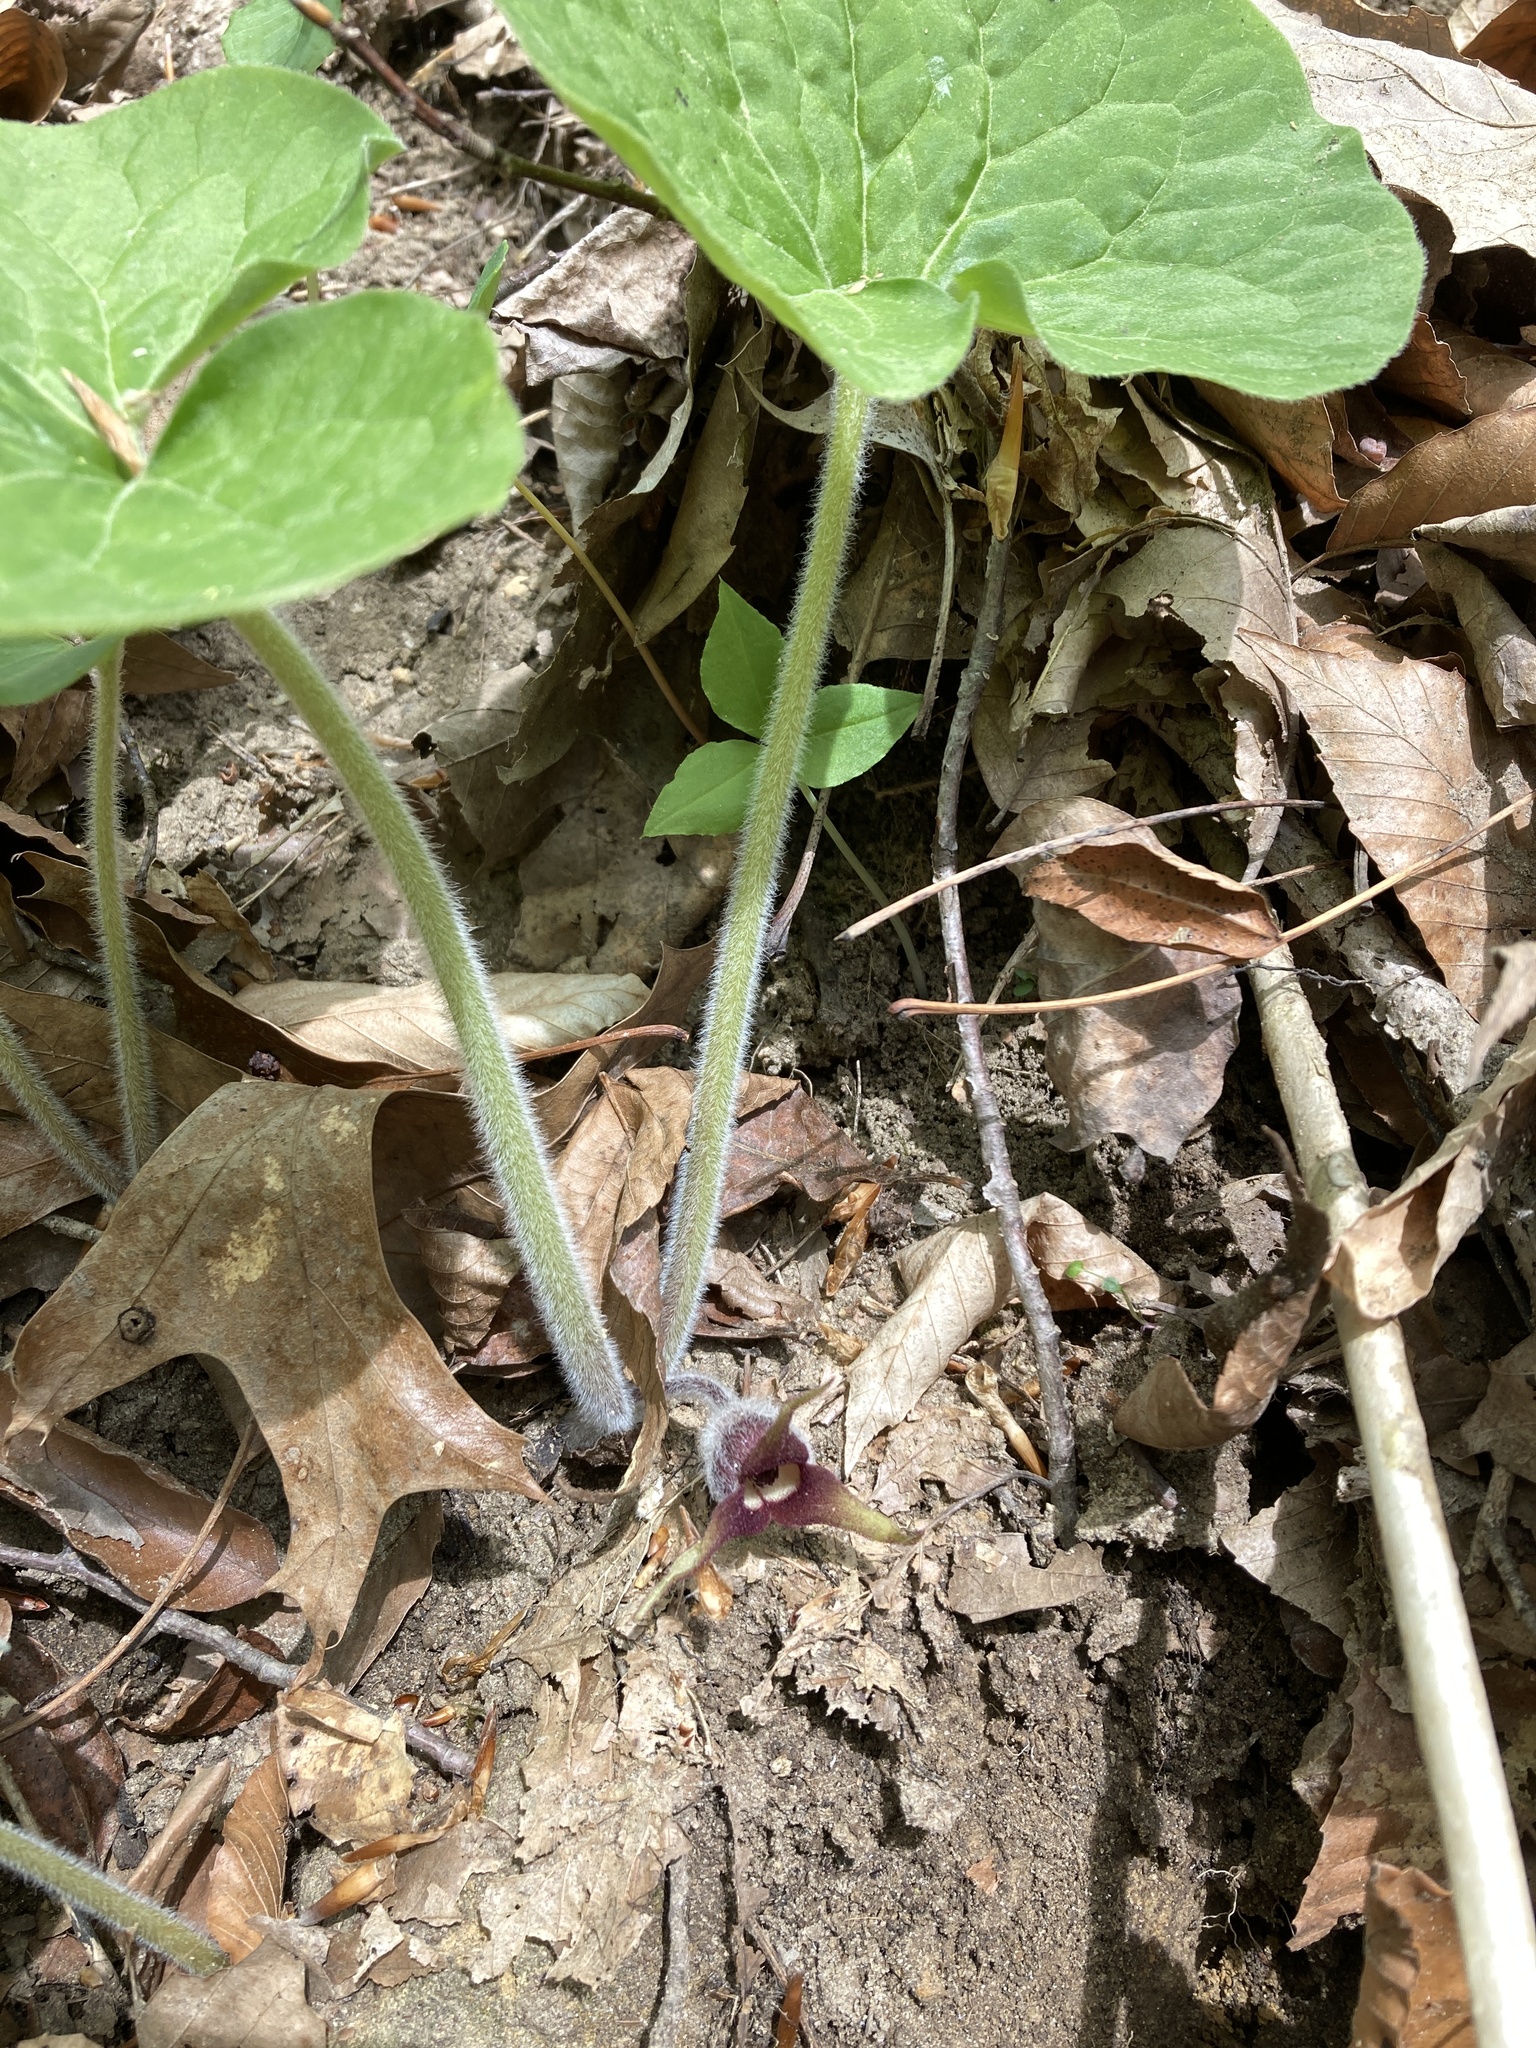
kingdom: Plantae
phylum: Tracheophyta
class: Magnoliopsida
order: Piperales
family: Aristolochiaceae
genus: Asarum
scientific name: Asarum canadense
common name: Wild ginger
